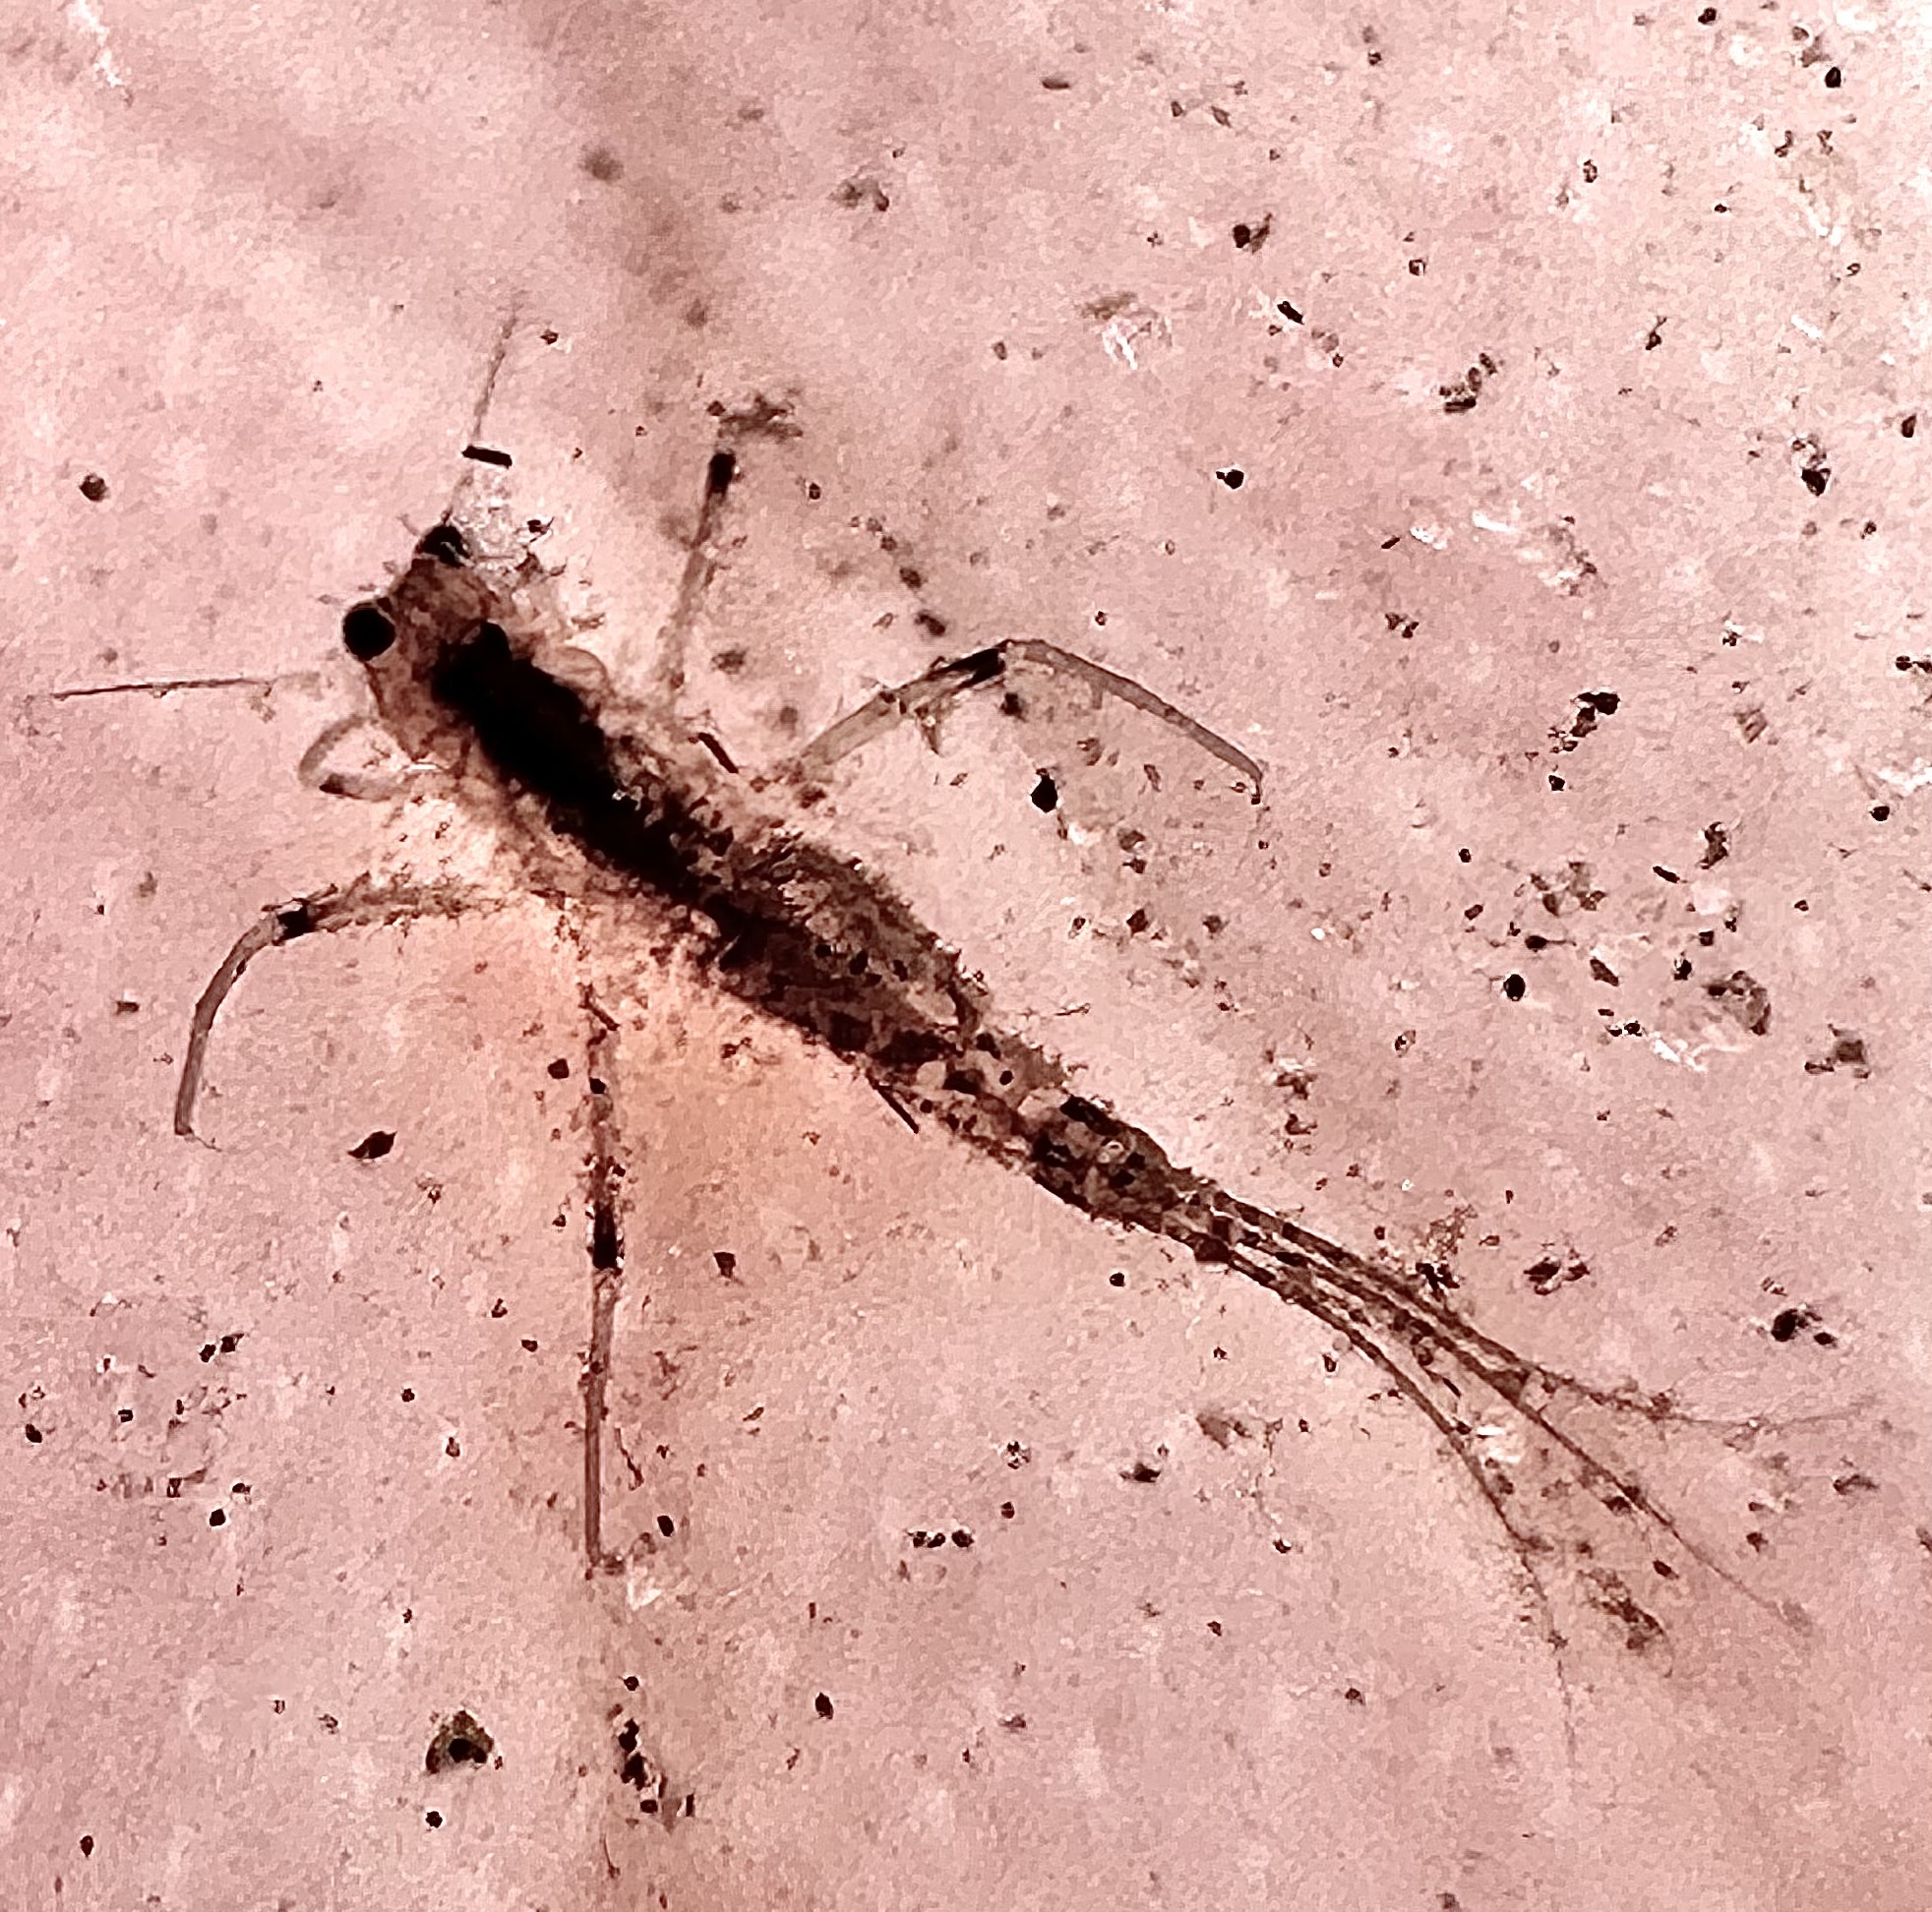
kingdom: Animalia
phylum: Arthropoda
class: Insecta
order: Ephemeroptera
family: Machadorythidae
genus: Machadorythus
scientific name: Machadorythus maculatus
